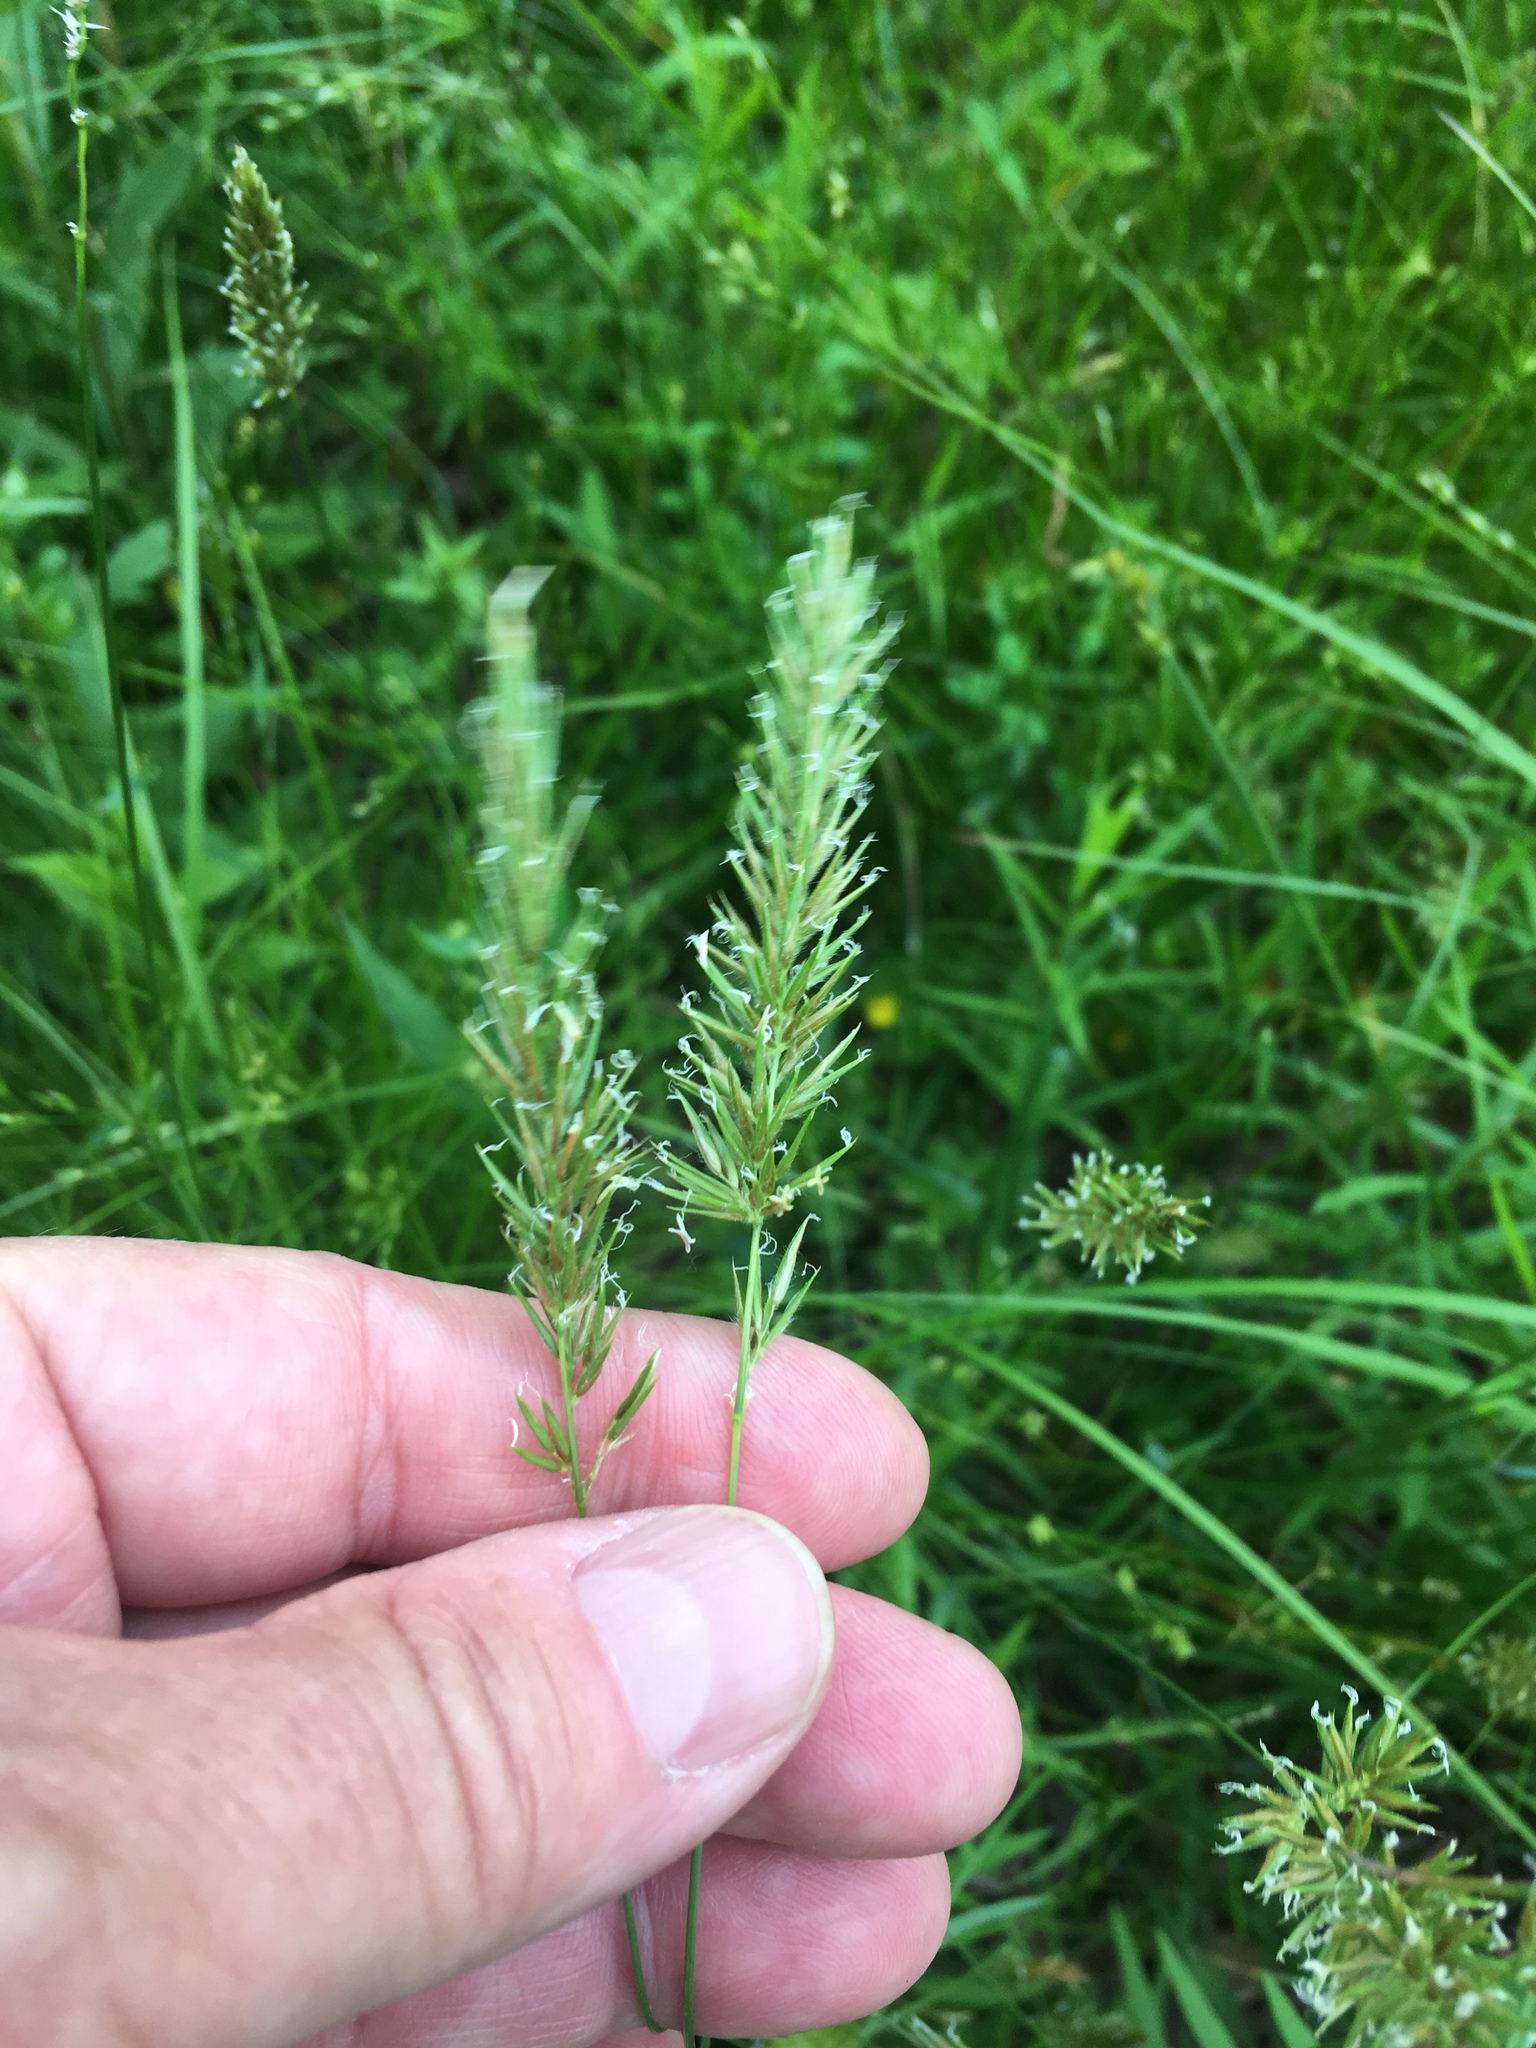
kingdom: Plantae
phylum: Tracheophyta
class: Liliopsida
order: Poales
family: Poaceae
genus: Anthoxanthum
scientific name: Anthoxanthum odoratum
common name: Sweet vernalgrass
